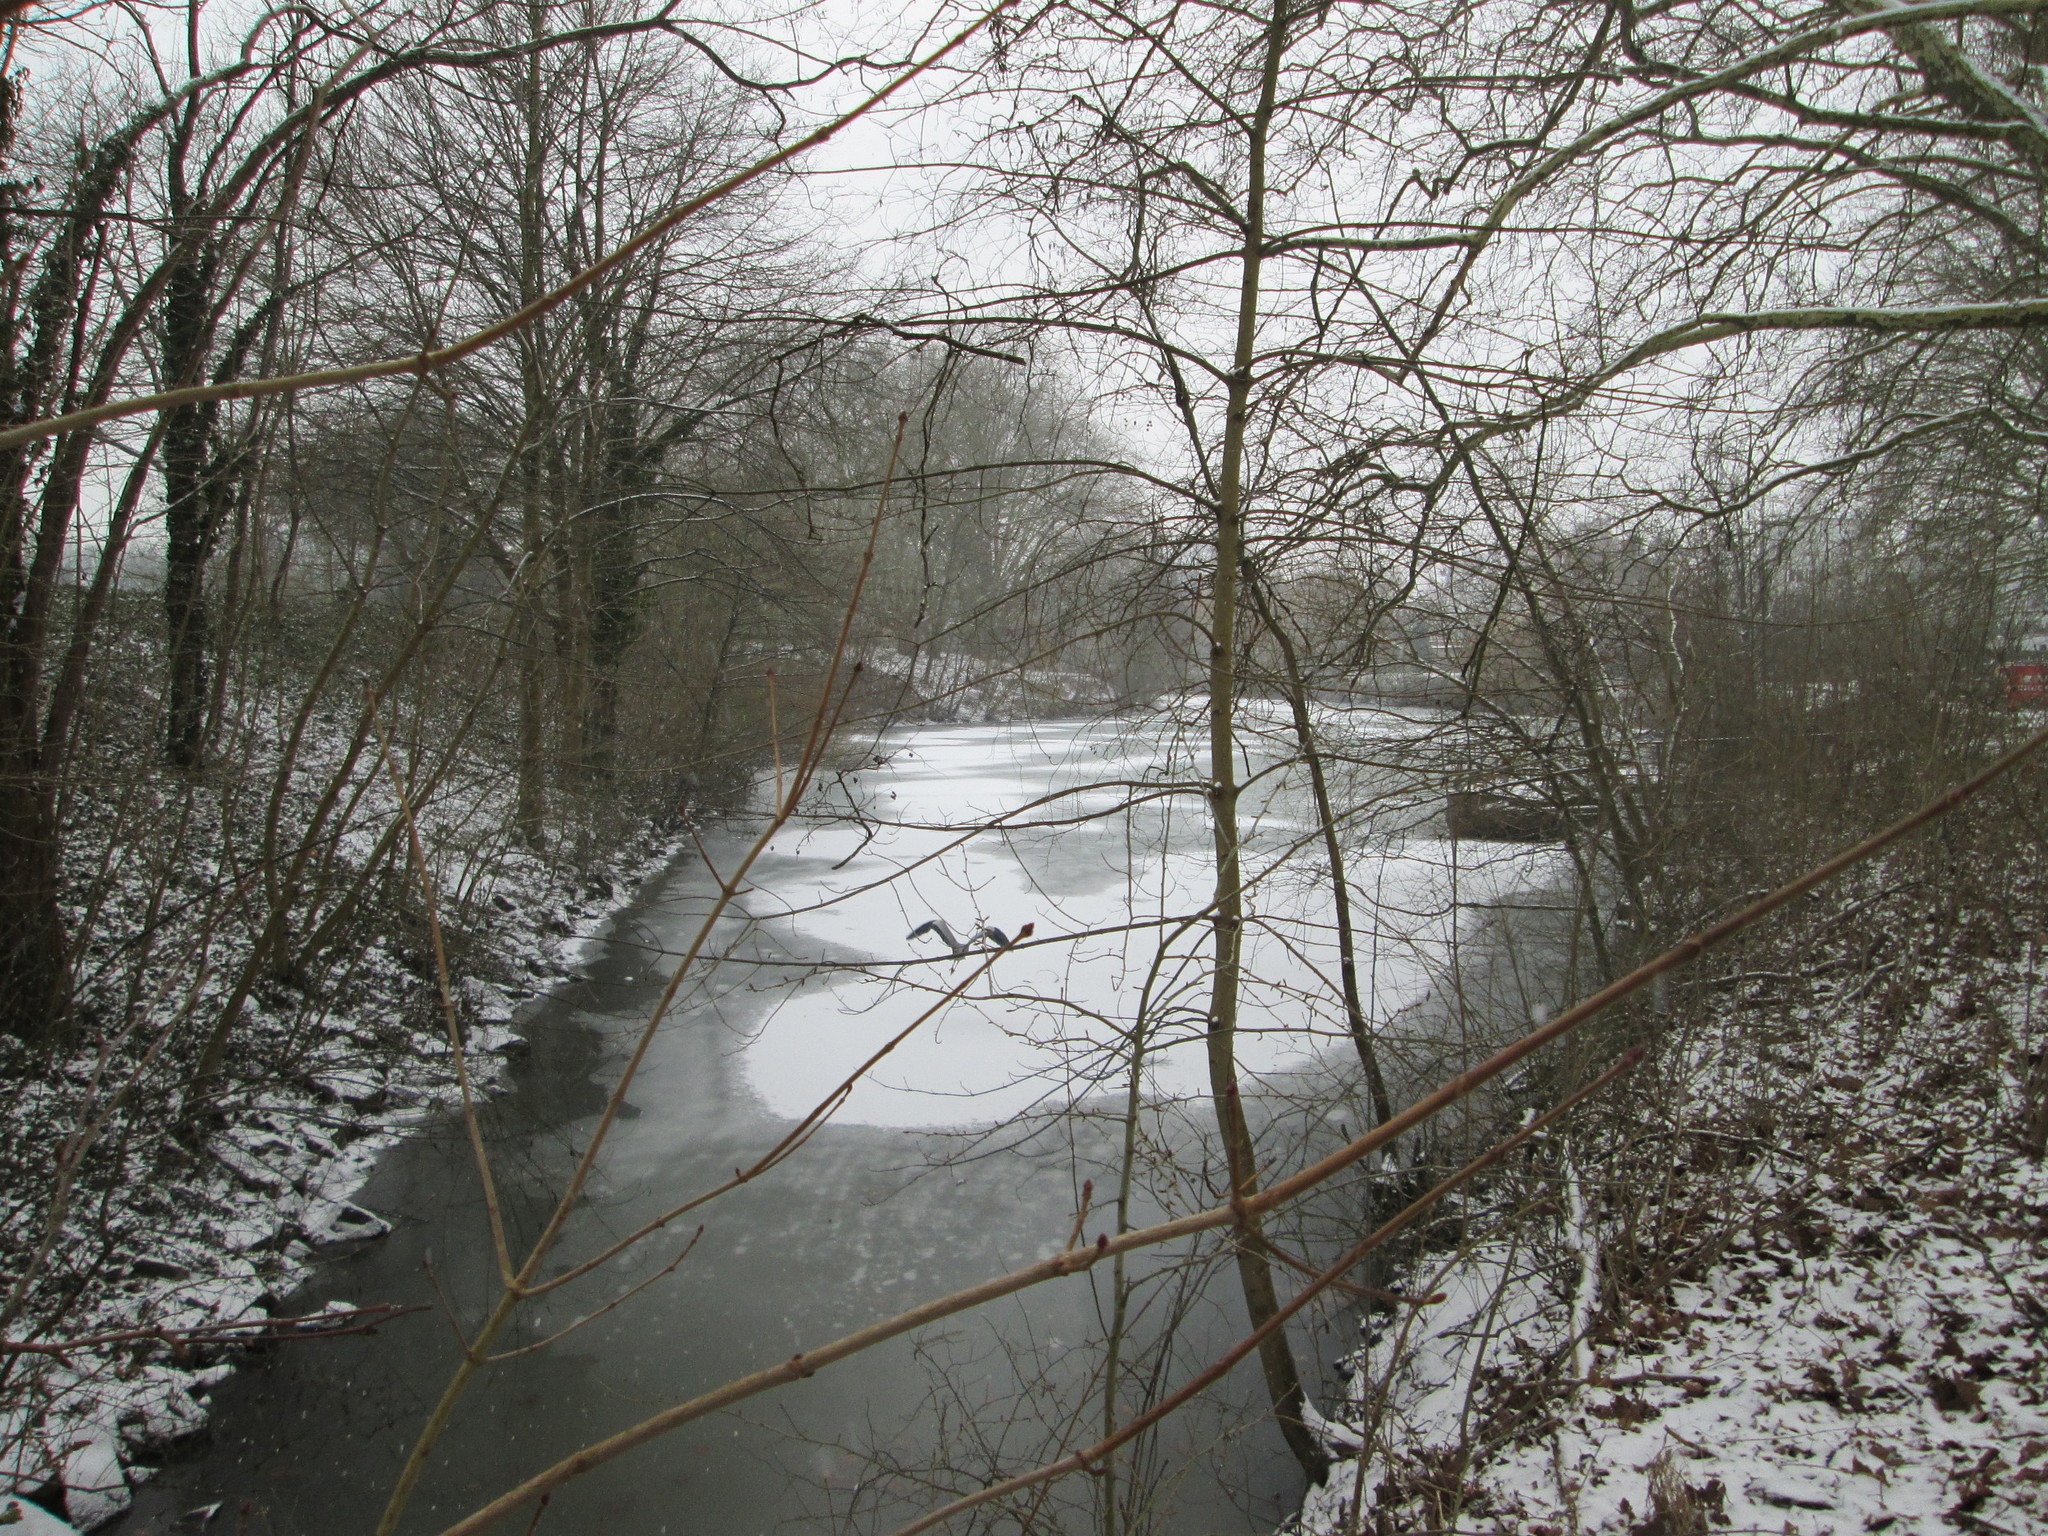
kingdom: Animalia
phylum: Chordata
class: Aves
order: Pelecaniformes
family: Ardeidae
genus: Ardea
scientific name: Ardea cinerea
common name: Grey heron
